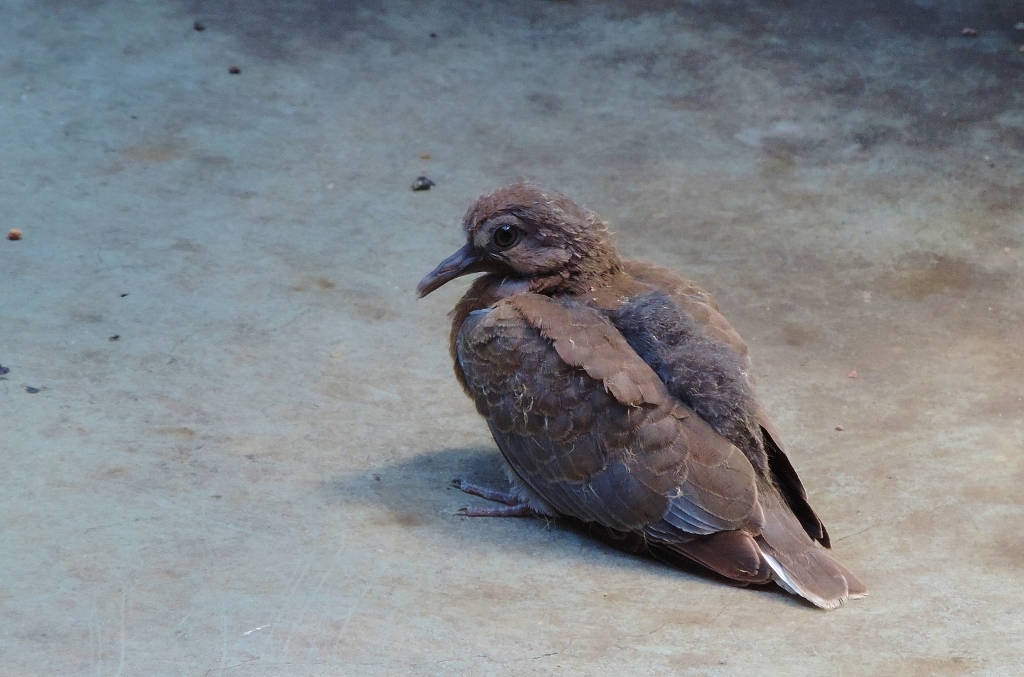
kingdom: Animalia
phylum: Chordata
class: Aves
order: Columbiformes
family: Columbidae
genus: Spilopelia
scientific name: Spilopelia senegalensis
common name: Laughing dove
